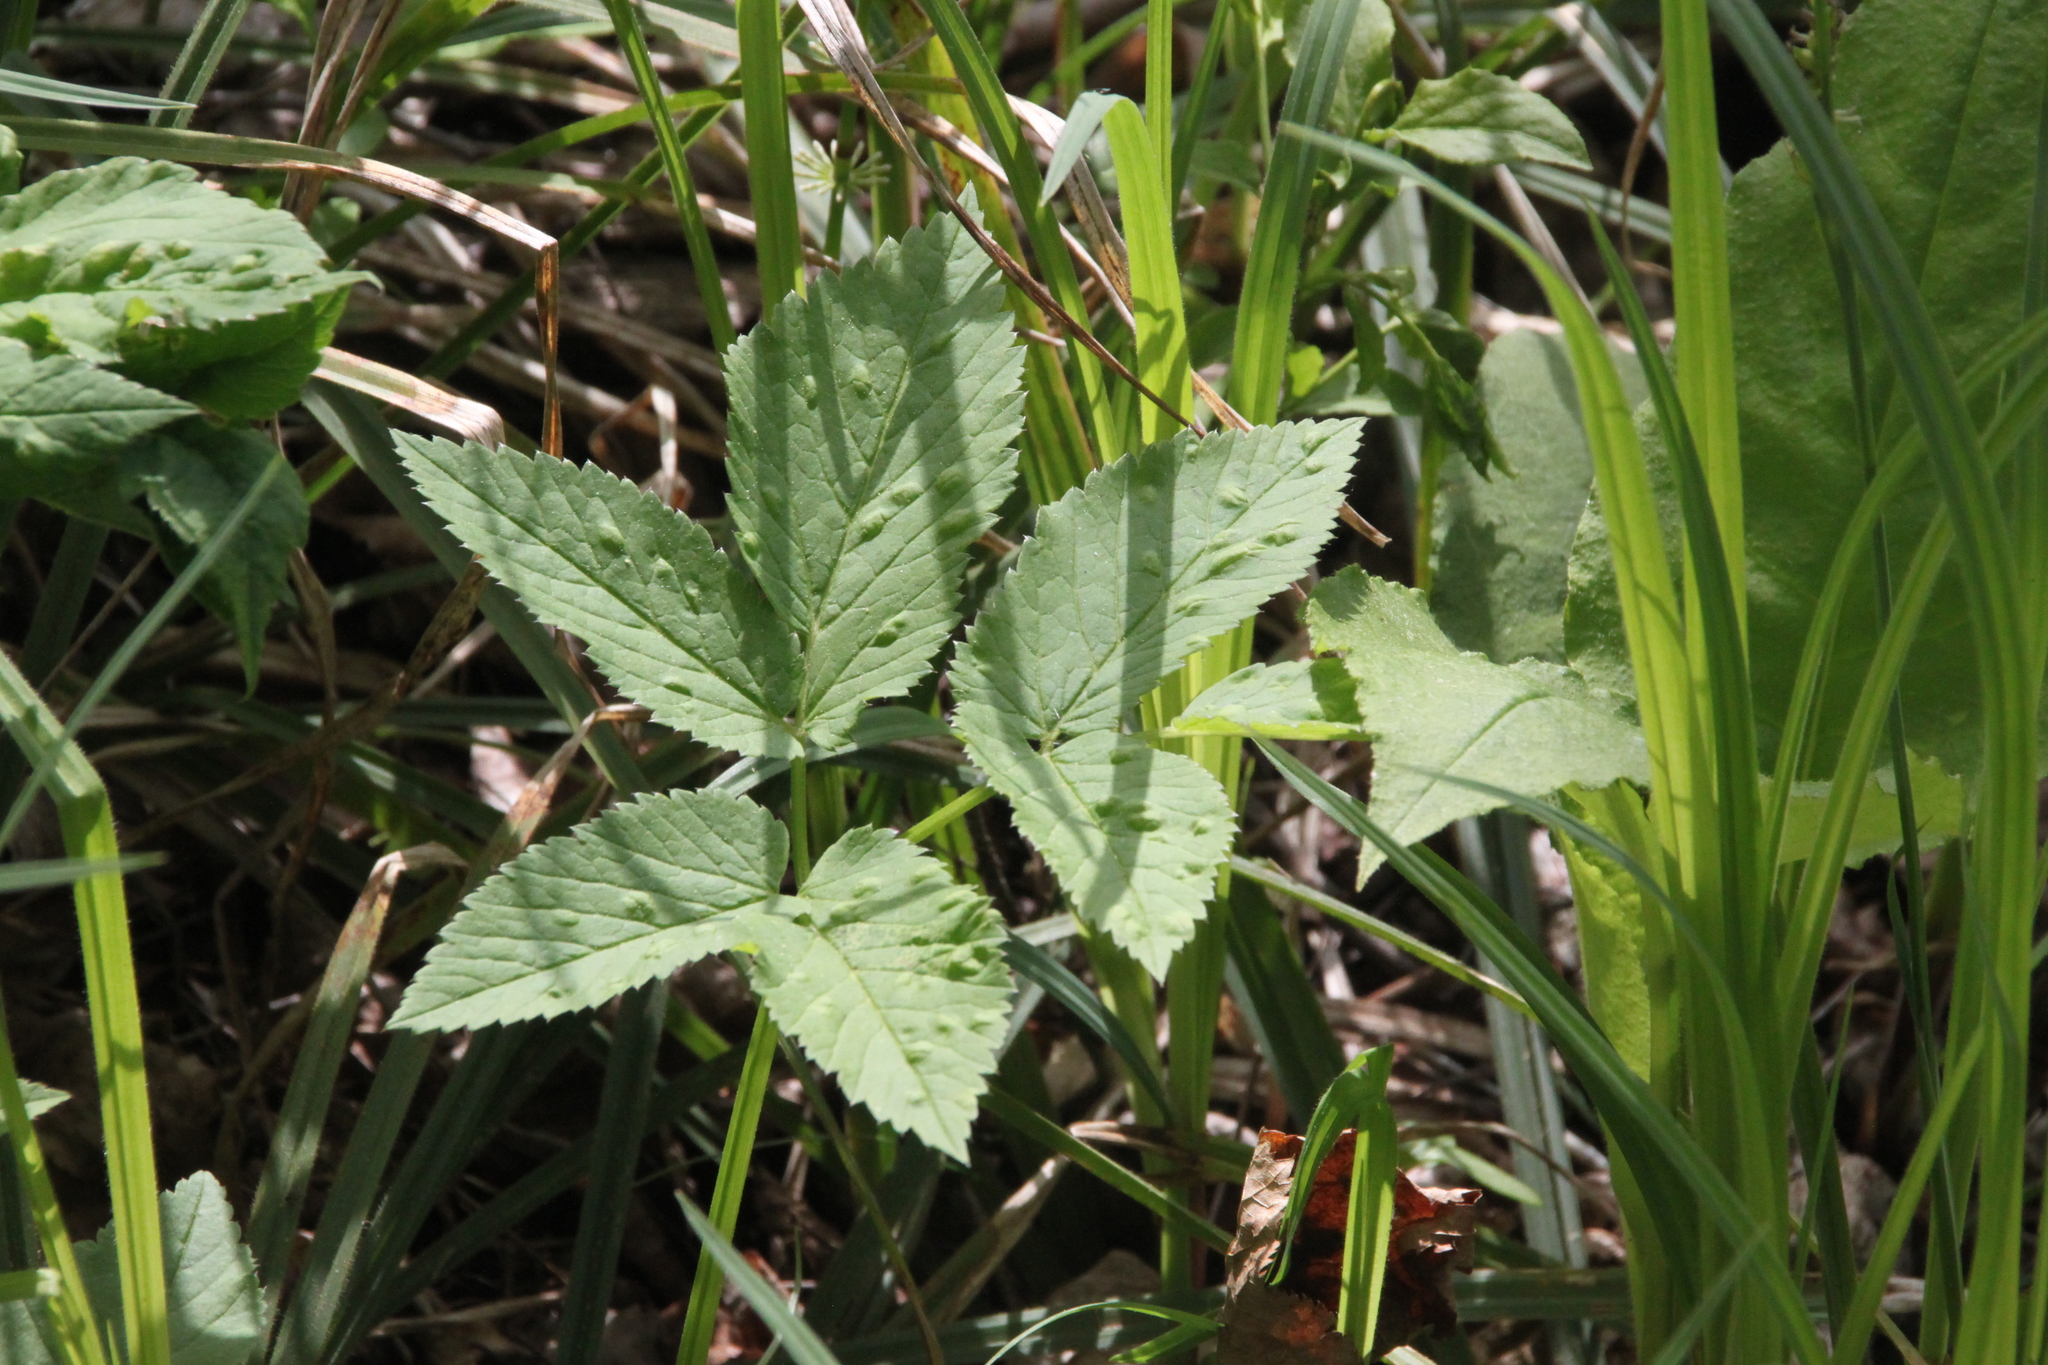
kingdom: Plantae
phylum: Tracheophyta
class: Magnoliopsida
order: Apiales
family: Apiaceae
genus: Aegopodium
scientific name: Aegopodium podagraria
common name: Ground-elder
